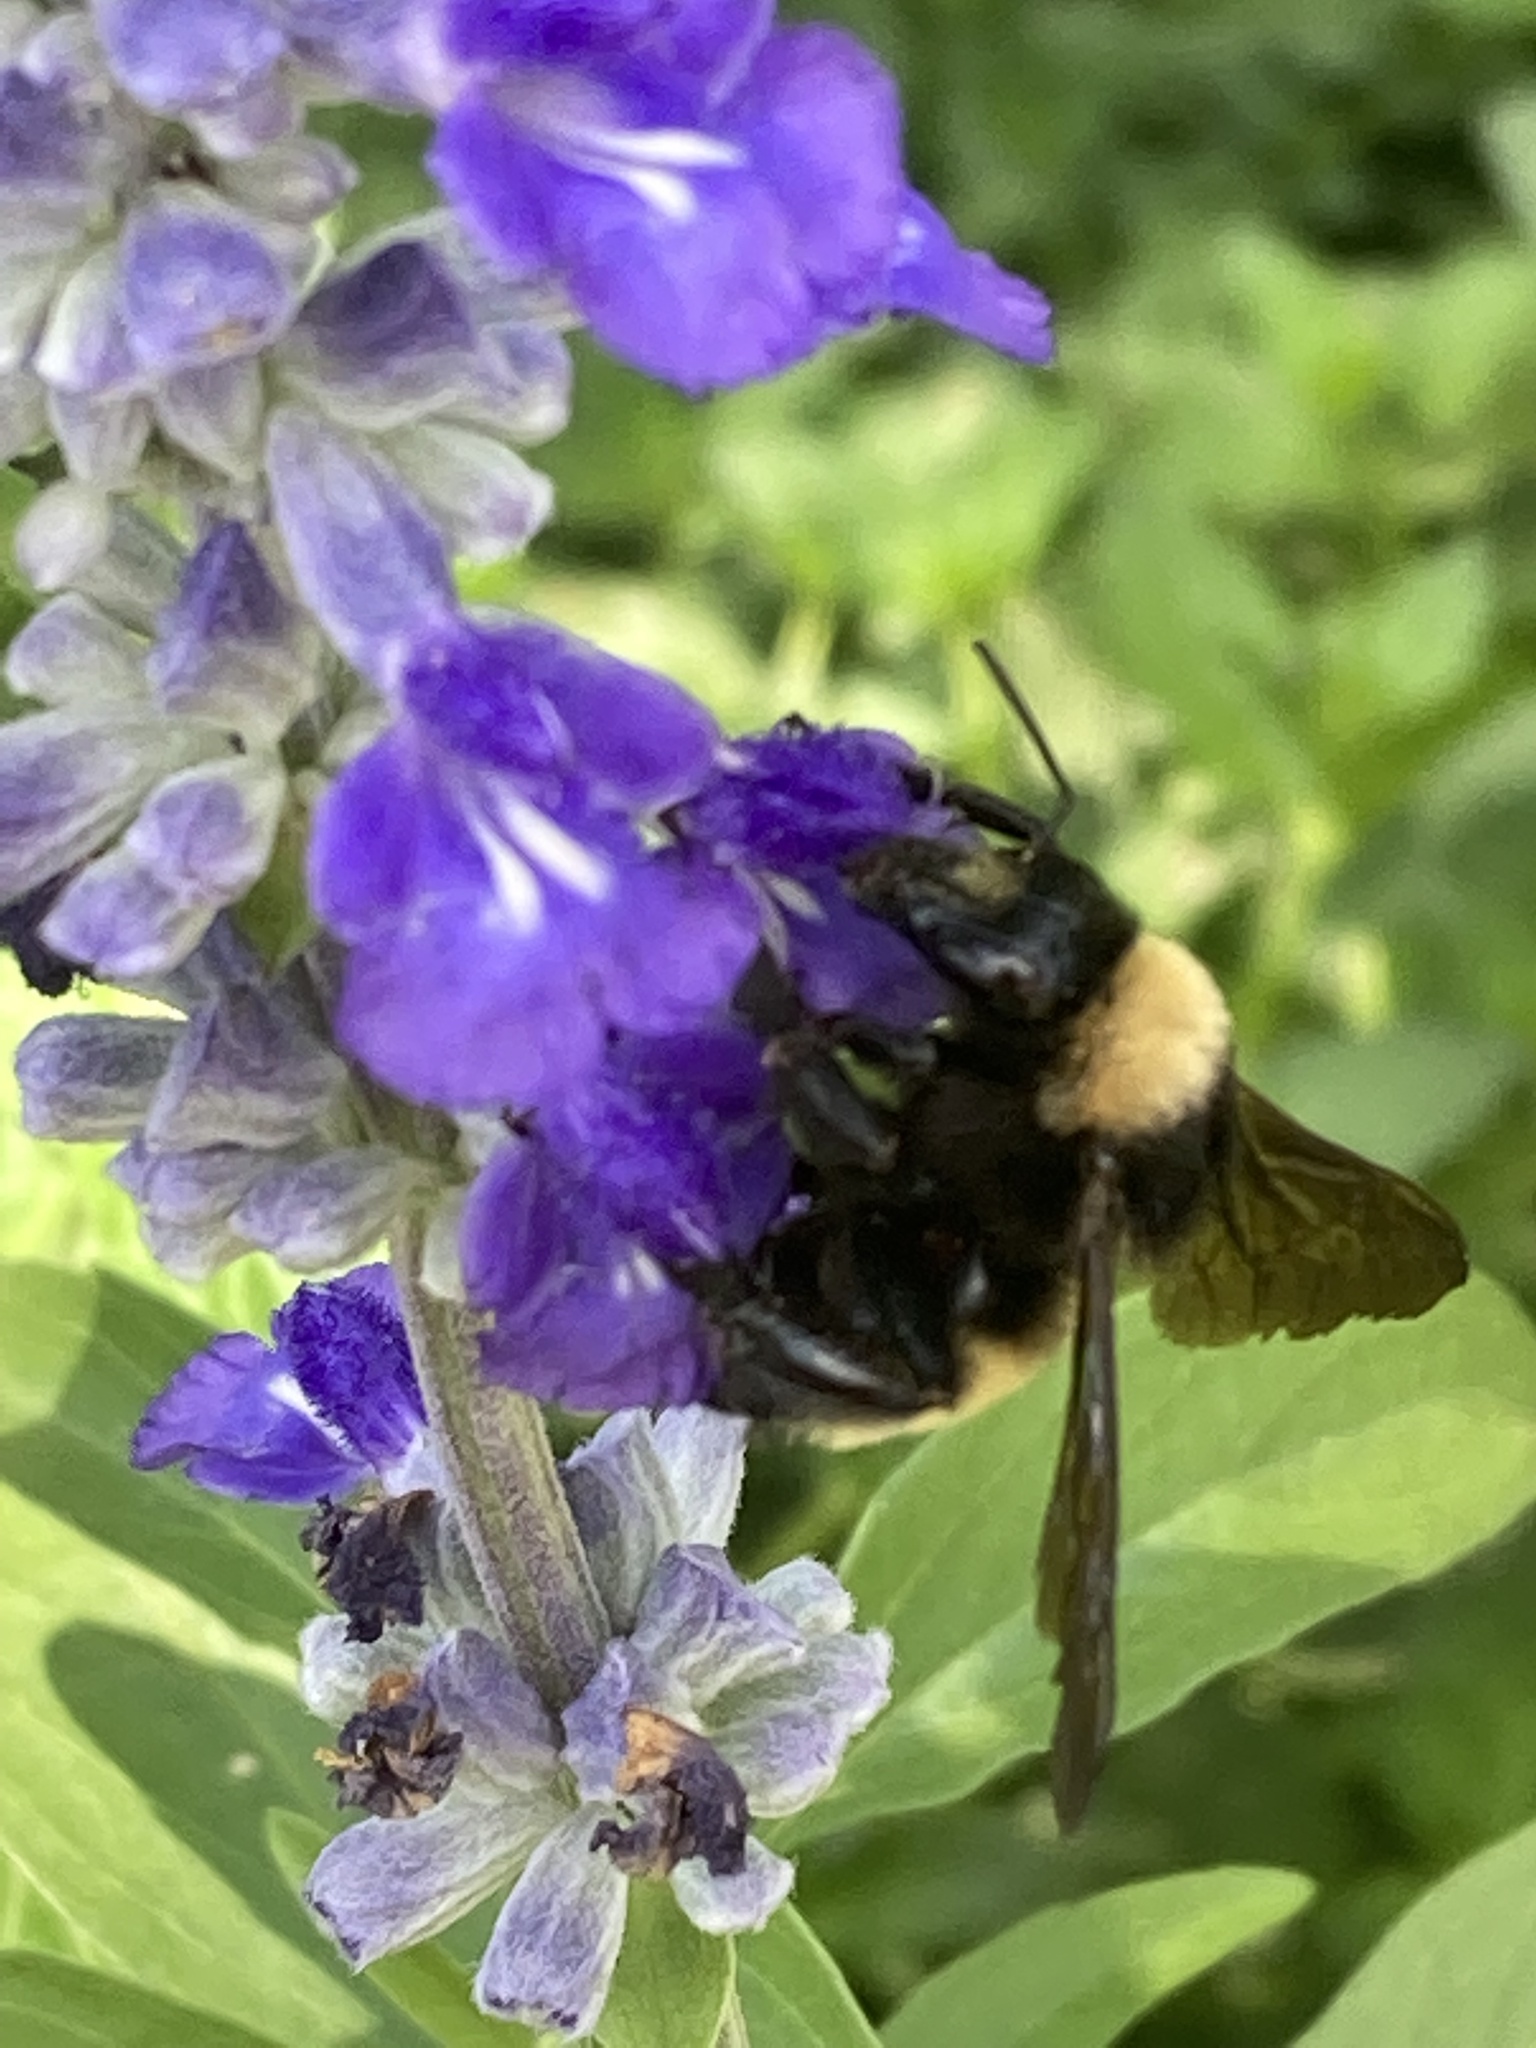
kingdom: Animalia
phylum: Arthropoda
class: Insecta
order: Hymenoptera
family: Apidae
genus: Bombus
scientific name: Bombus pensylvanicus
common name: Bumble bee
